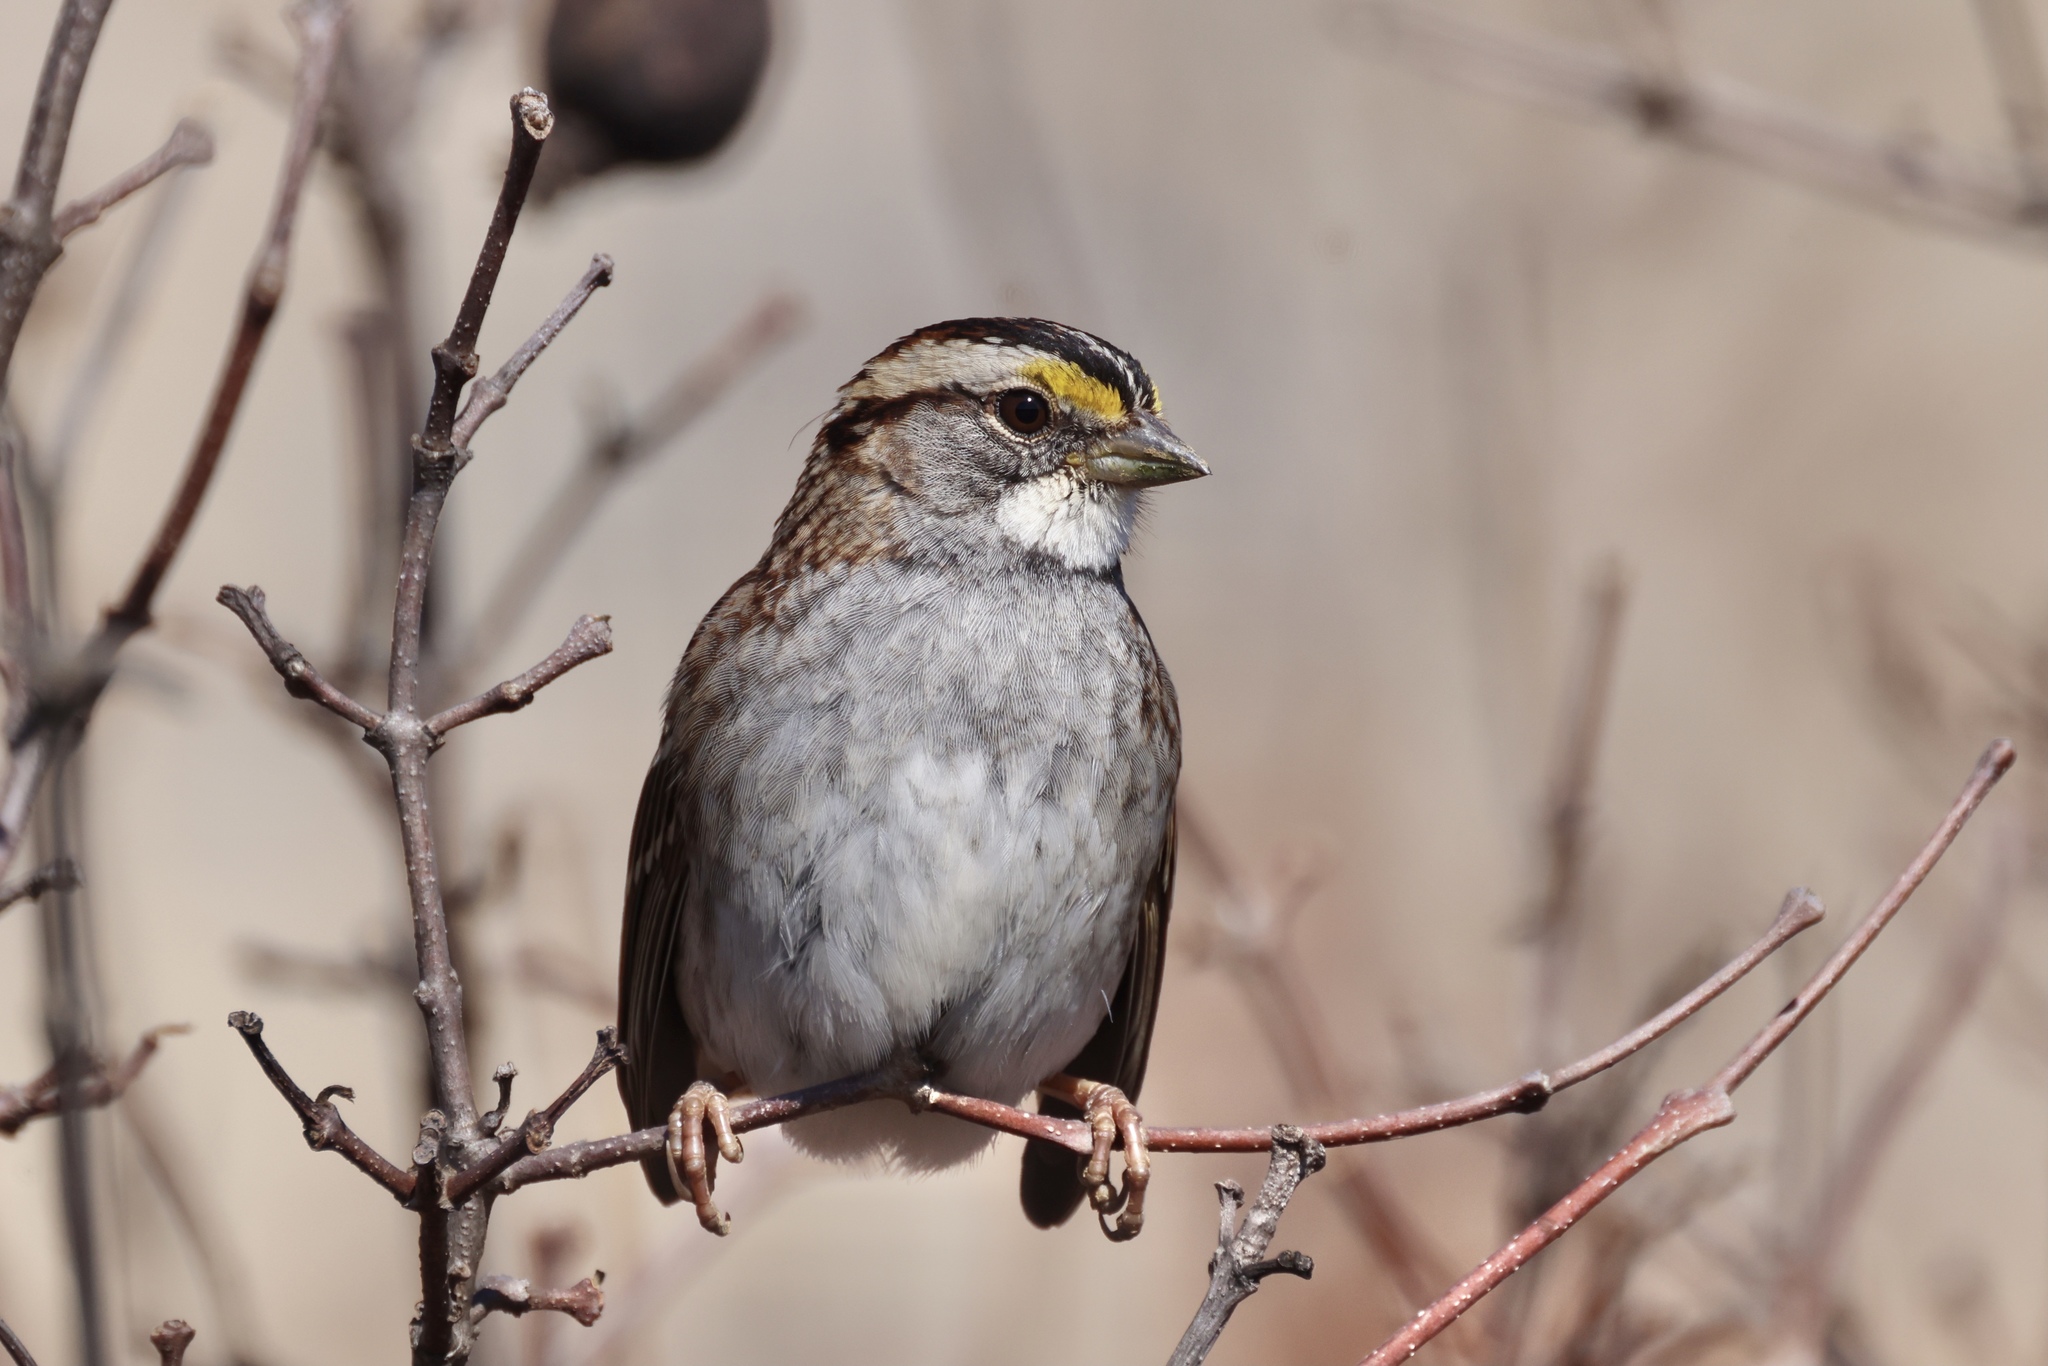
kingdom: Animalia
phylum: Chordata
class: Aves
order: Passeriformes
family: Passerellidae
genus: Zonotrichia
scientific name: Zonotrichia albicollis
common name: White-throated sparrow
